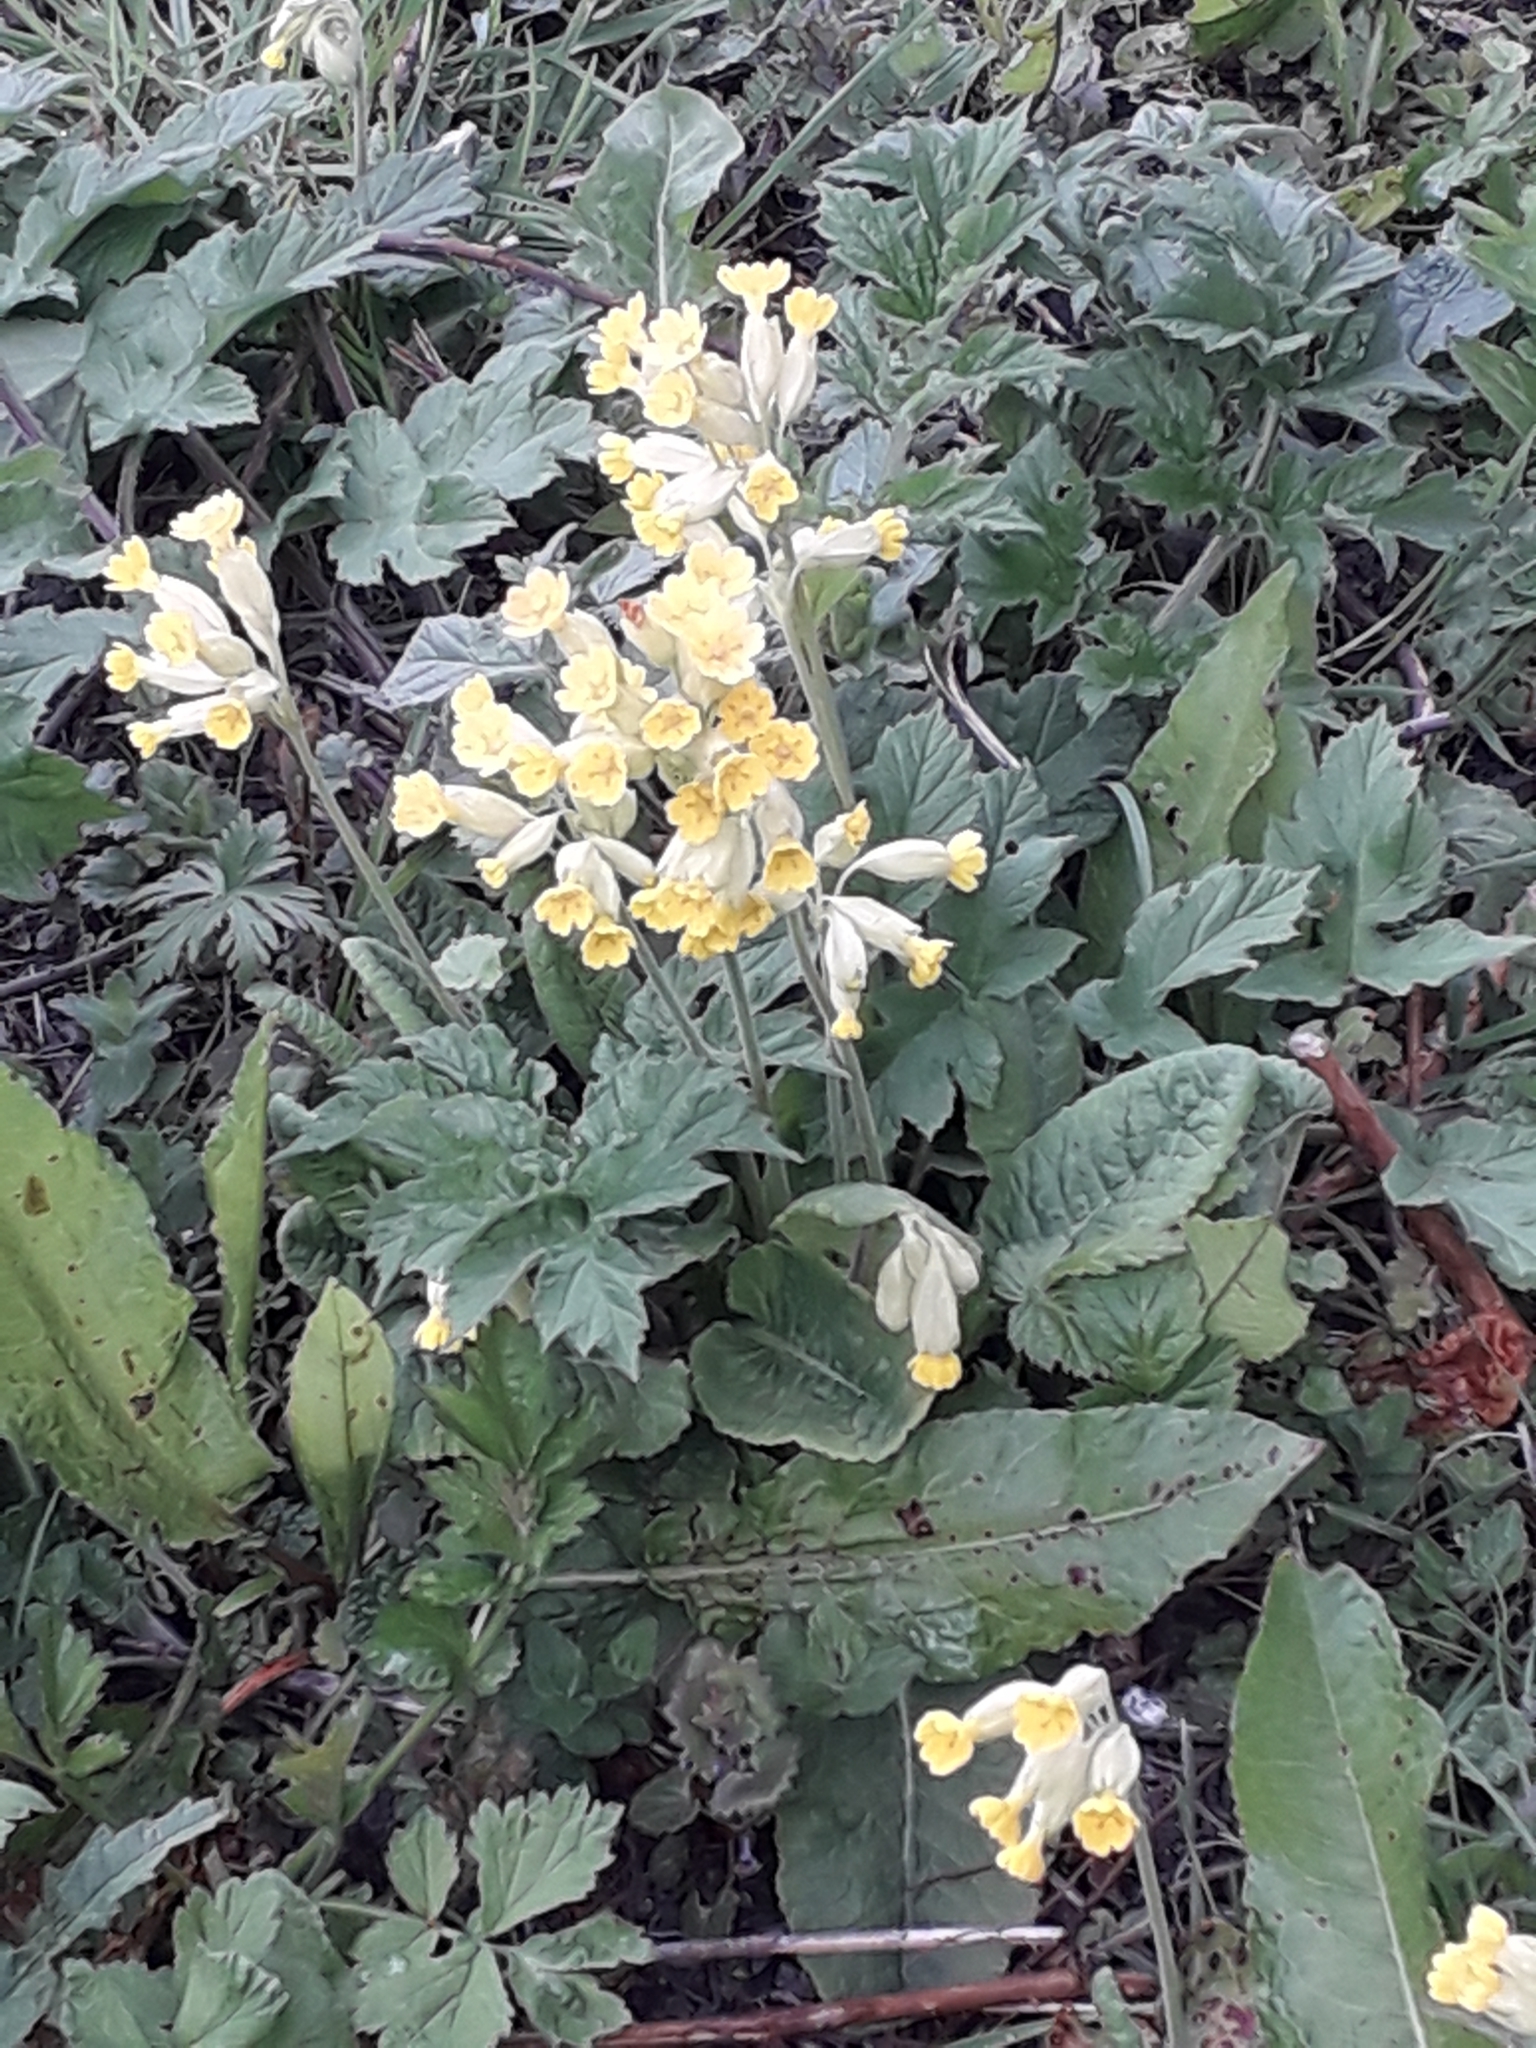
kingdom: Plantae
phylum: Tracheophyta
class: Magnoliopsida
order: Ericales
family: Primulaceae
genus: Primula
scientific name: Primula veris
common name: Cowslip
